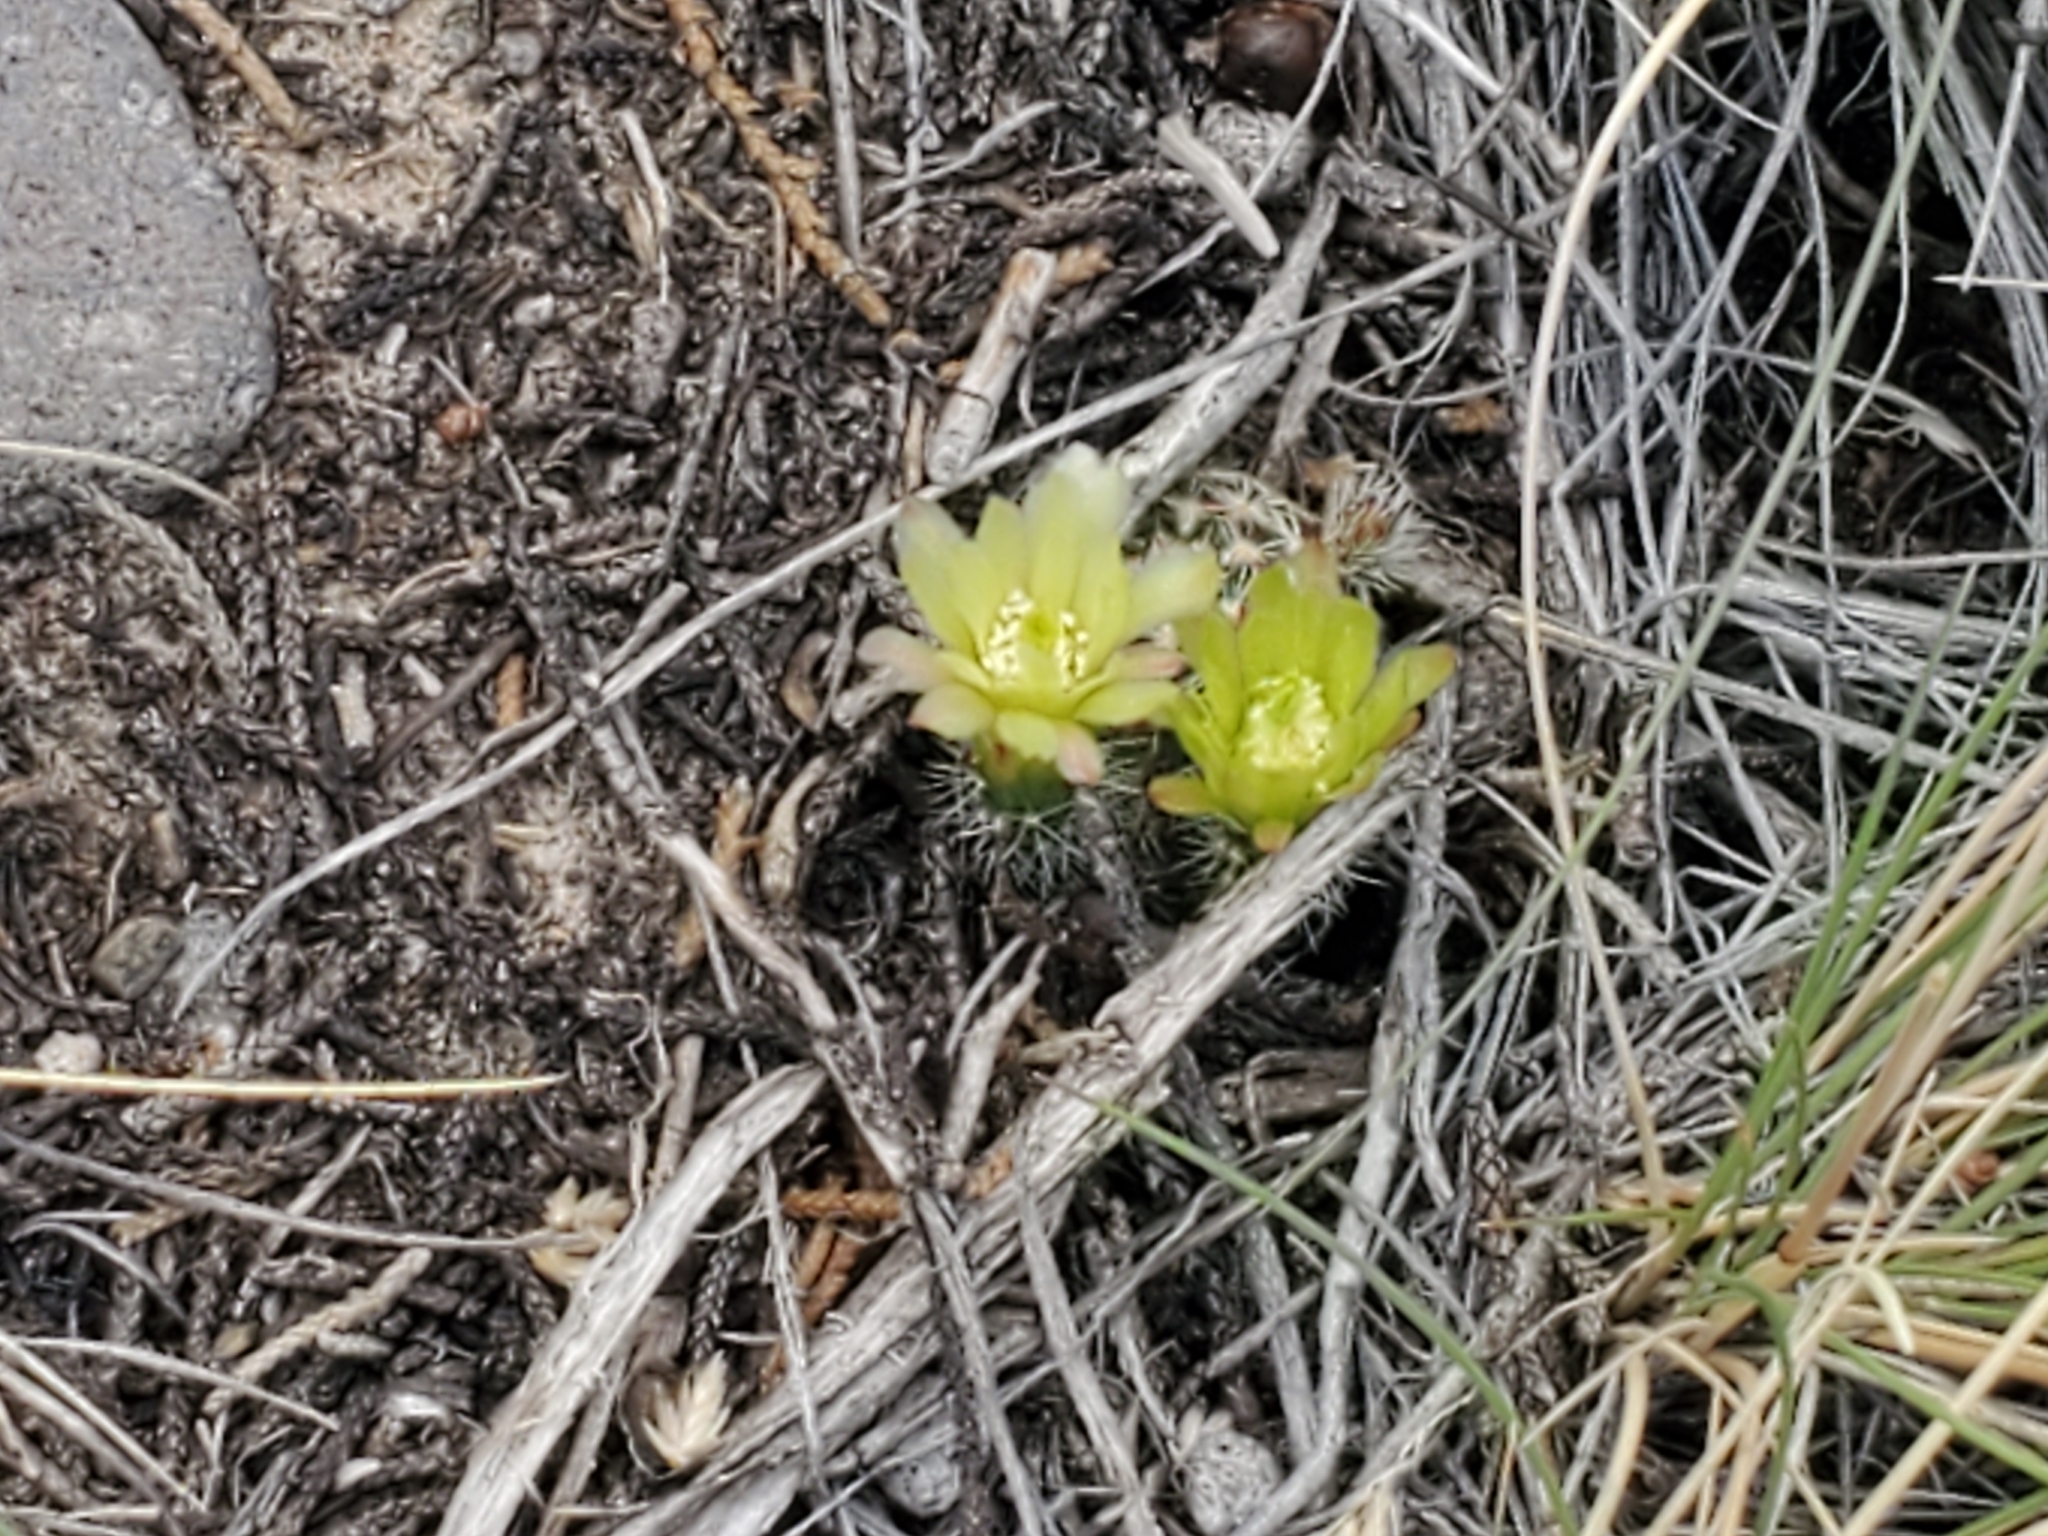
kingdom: Plantae
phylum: Tracheophyta
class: Magnoliopsida
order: Caryophyllales
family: Cactaceae
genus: Echinocereus
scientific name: Echinocereus viridiflorus
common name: Nylon hedgehog cactus
